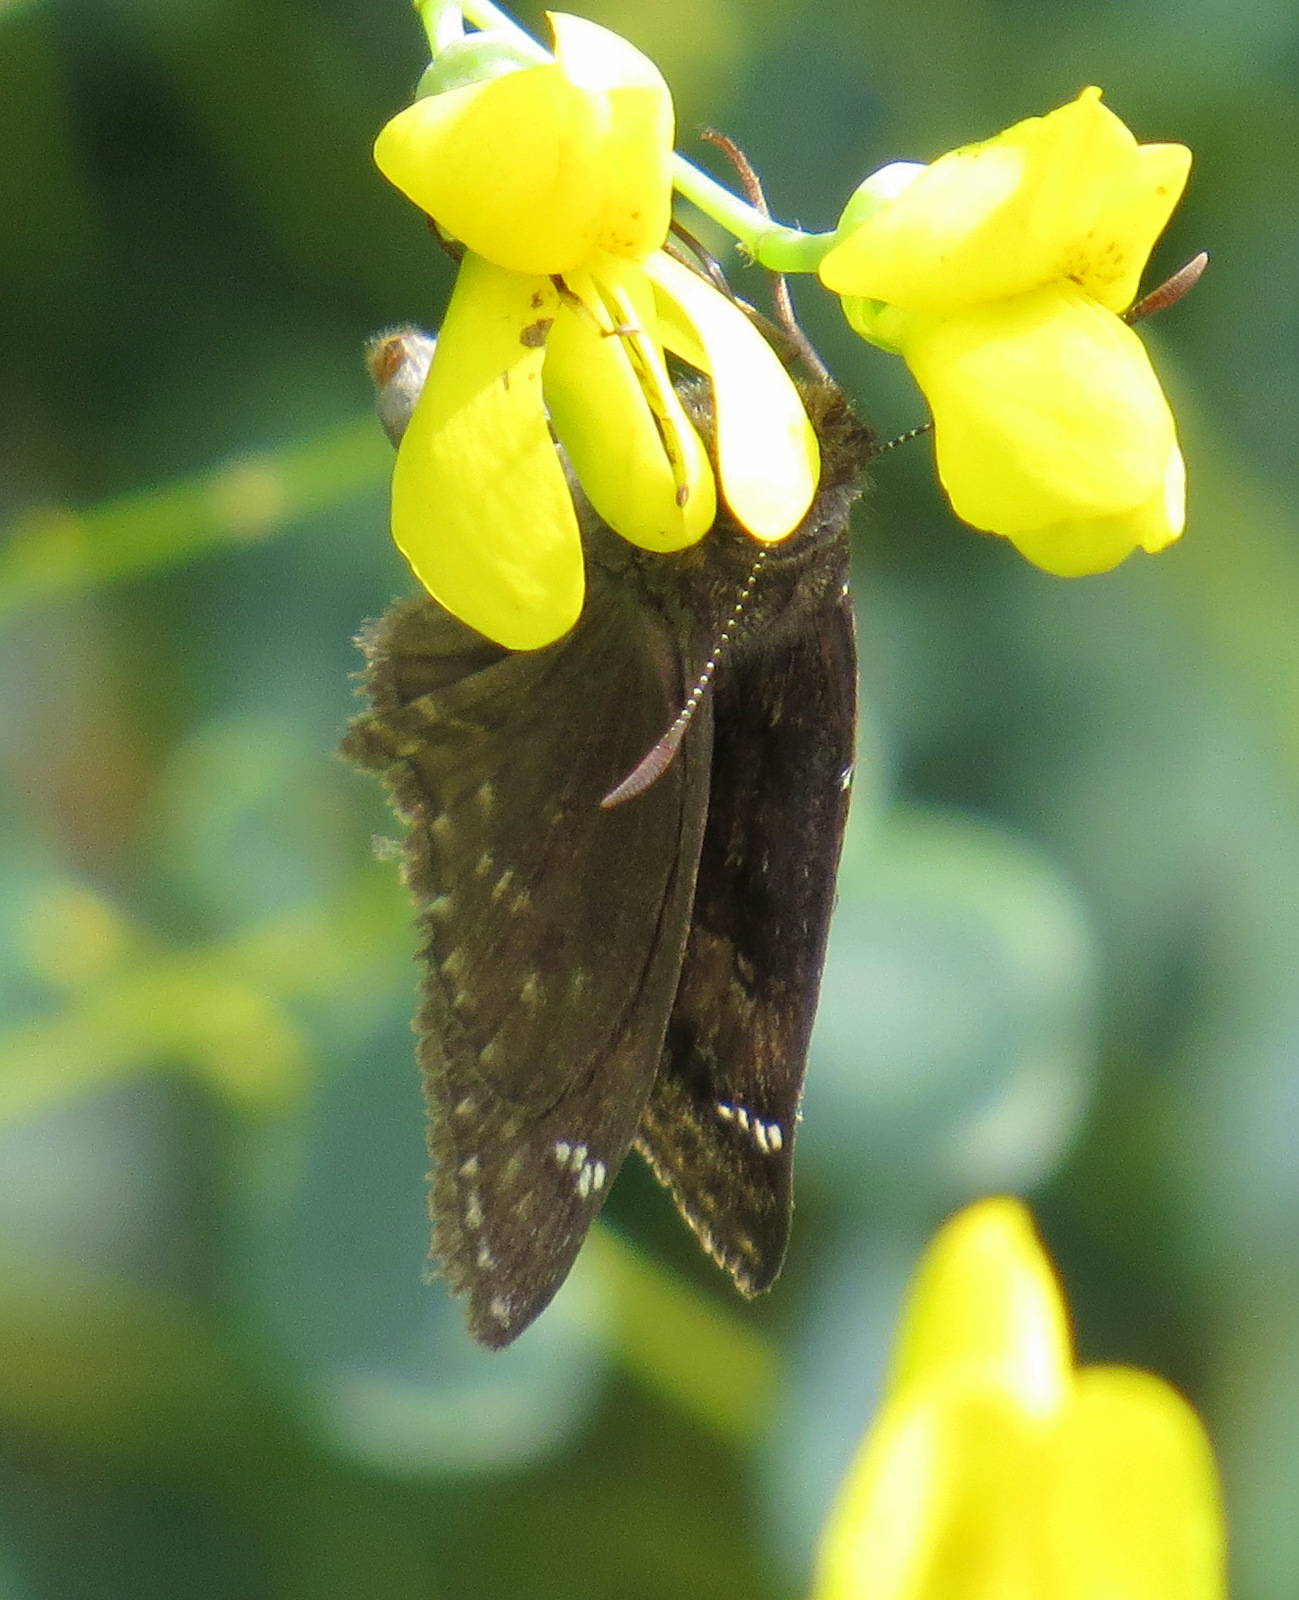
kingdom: Animalia
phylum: Arthropoda
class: Insecta
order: Lepidoptera
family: Hesperiidae
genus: Erynnis
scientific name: Erynnis baptisiae
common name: Wild indigo duskywing
